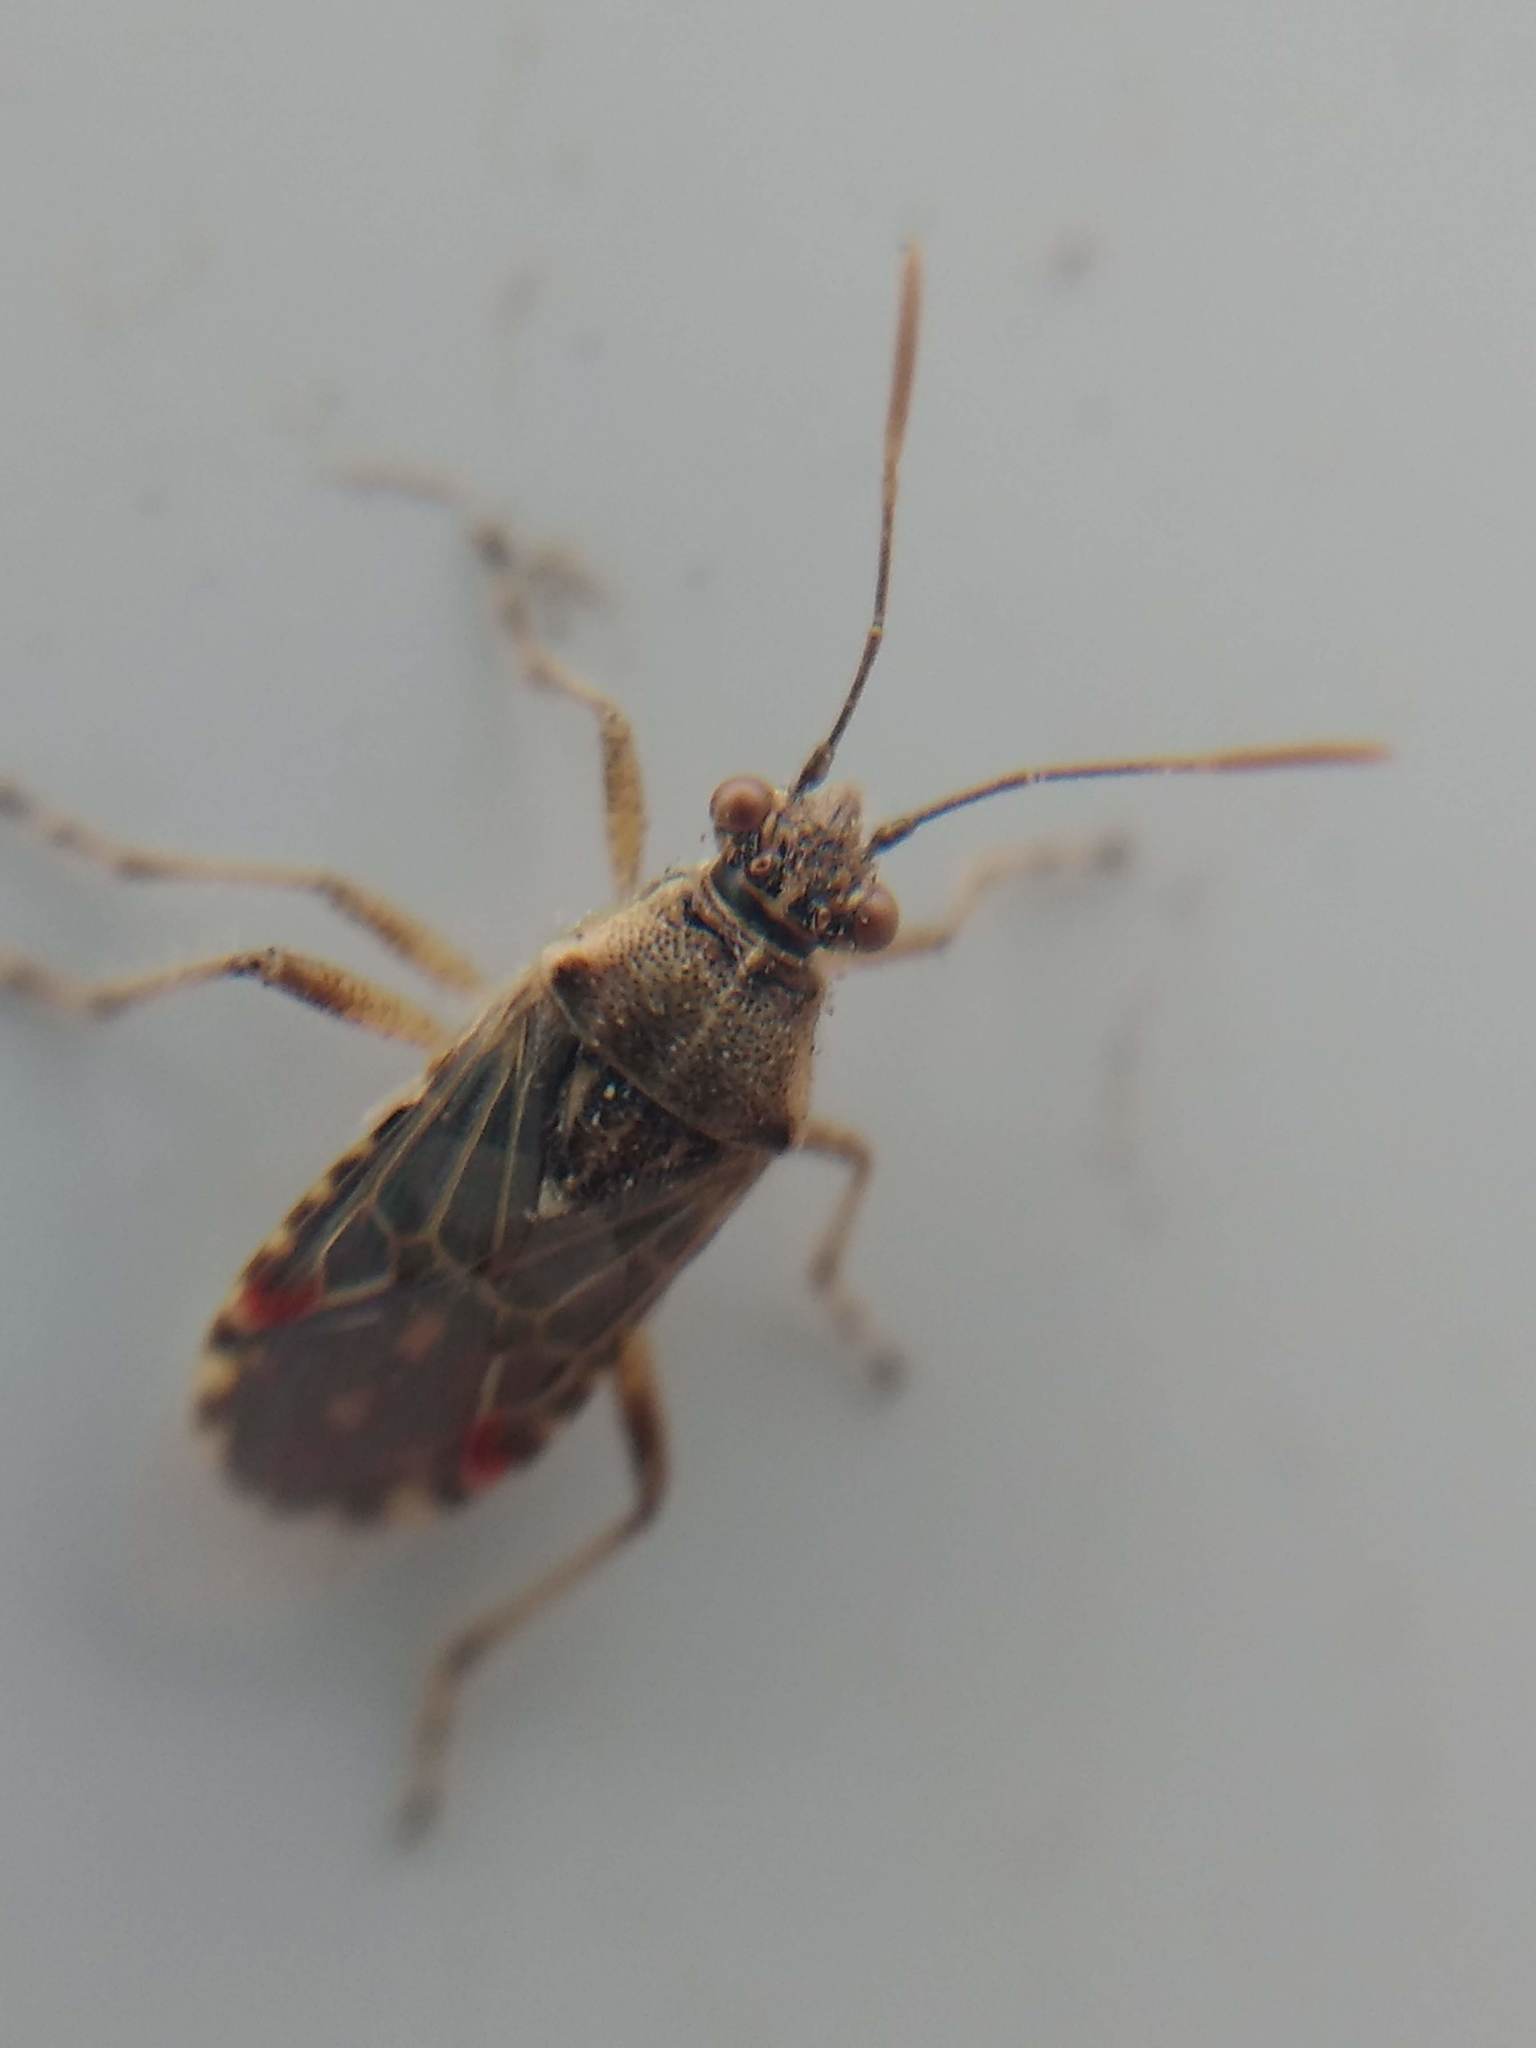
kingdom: Animalia
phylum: Arthropoda
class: Insecta
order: Hemiptera
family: Rhopalidae
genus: Liorhyssus
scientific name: Liorhyssus hyalinus
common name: Scentless plant bug
